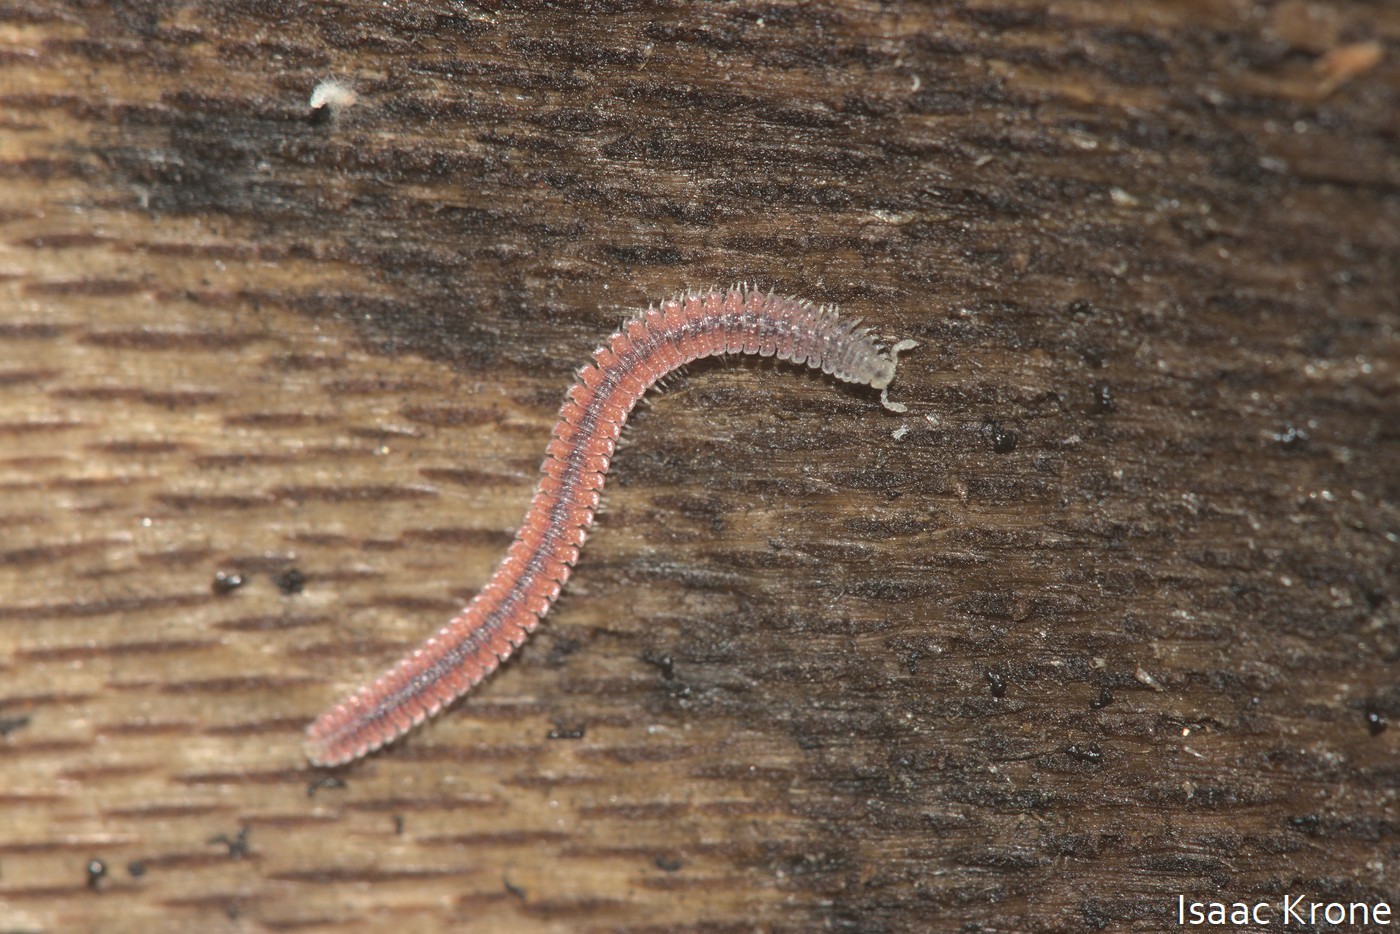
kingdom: Animalia
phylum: Arthropoda
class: Diplopoda
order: Platydesmida
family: Andrognathidae
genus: Gosodesmus
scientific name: Gosodesmus claremontus
